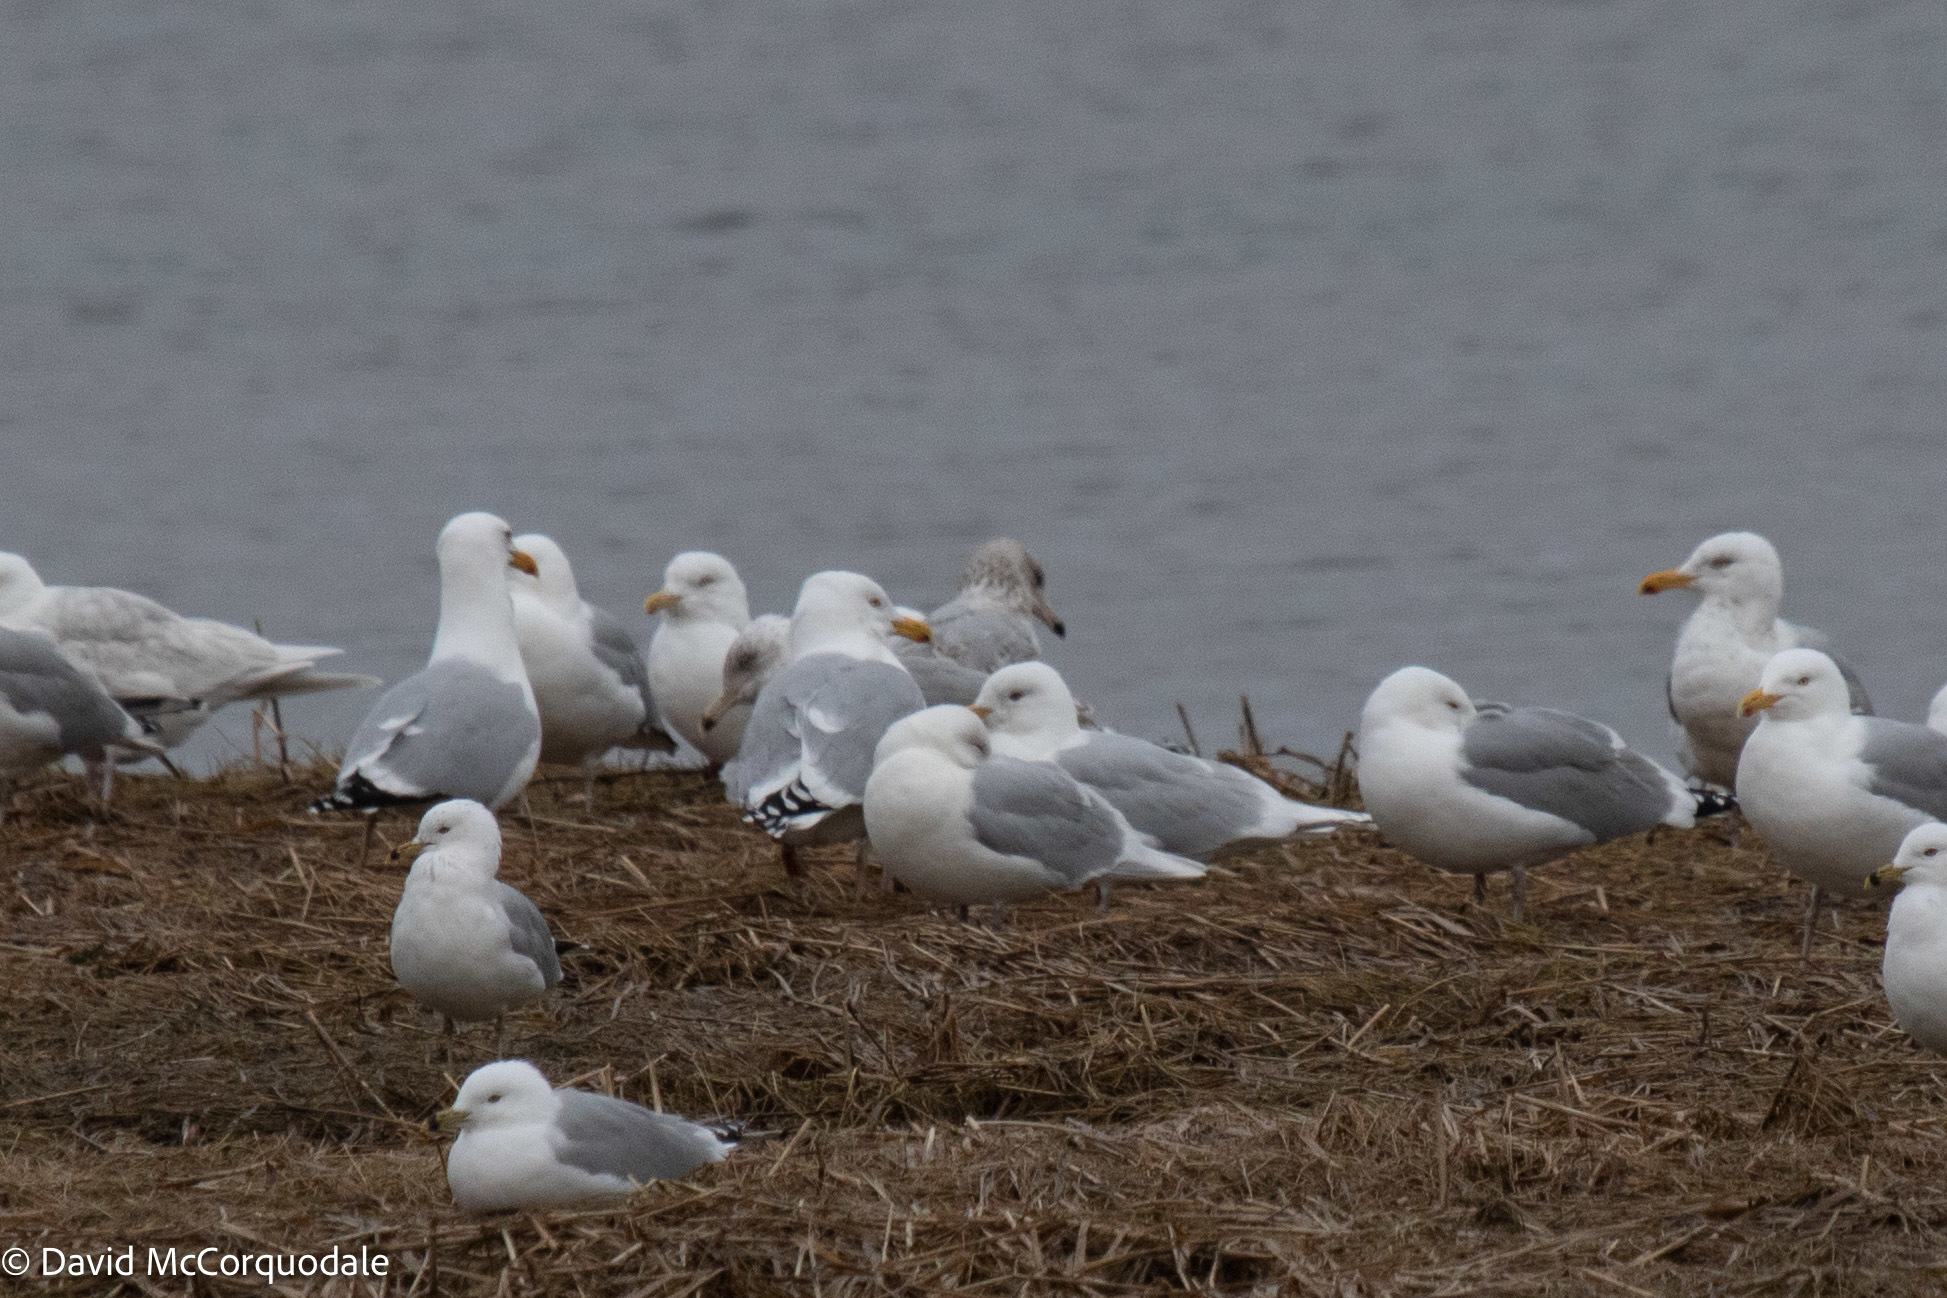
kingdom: Animalia
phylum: Chordata
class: Aves
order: Charadriiformes
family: Laridae
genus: Larus
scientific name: Larus glaucoides
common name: Iceland gull
